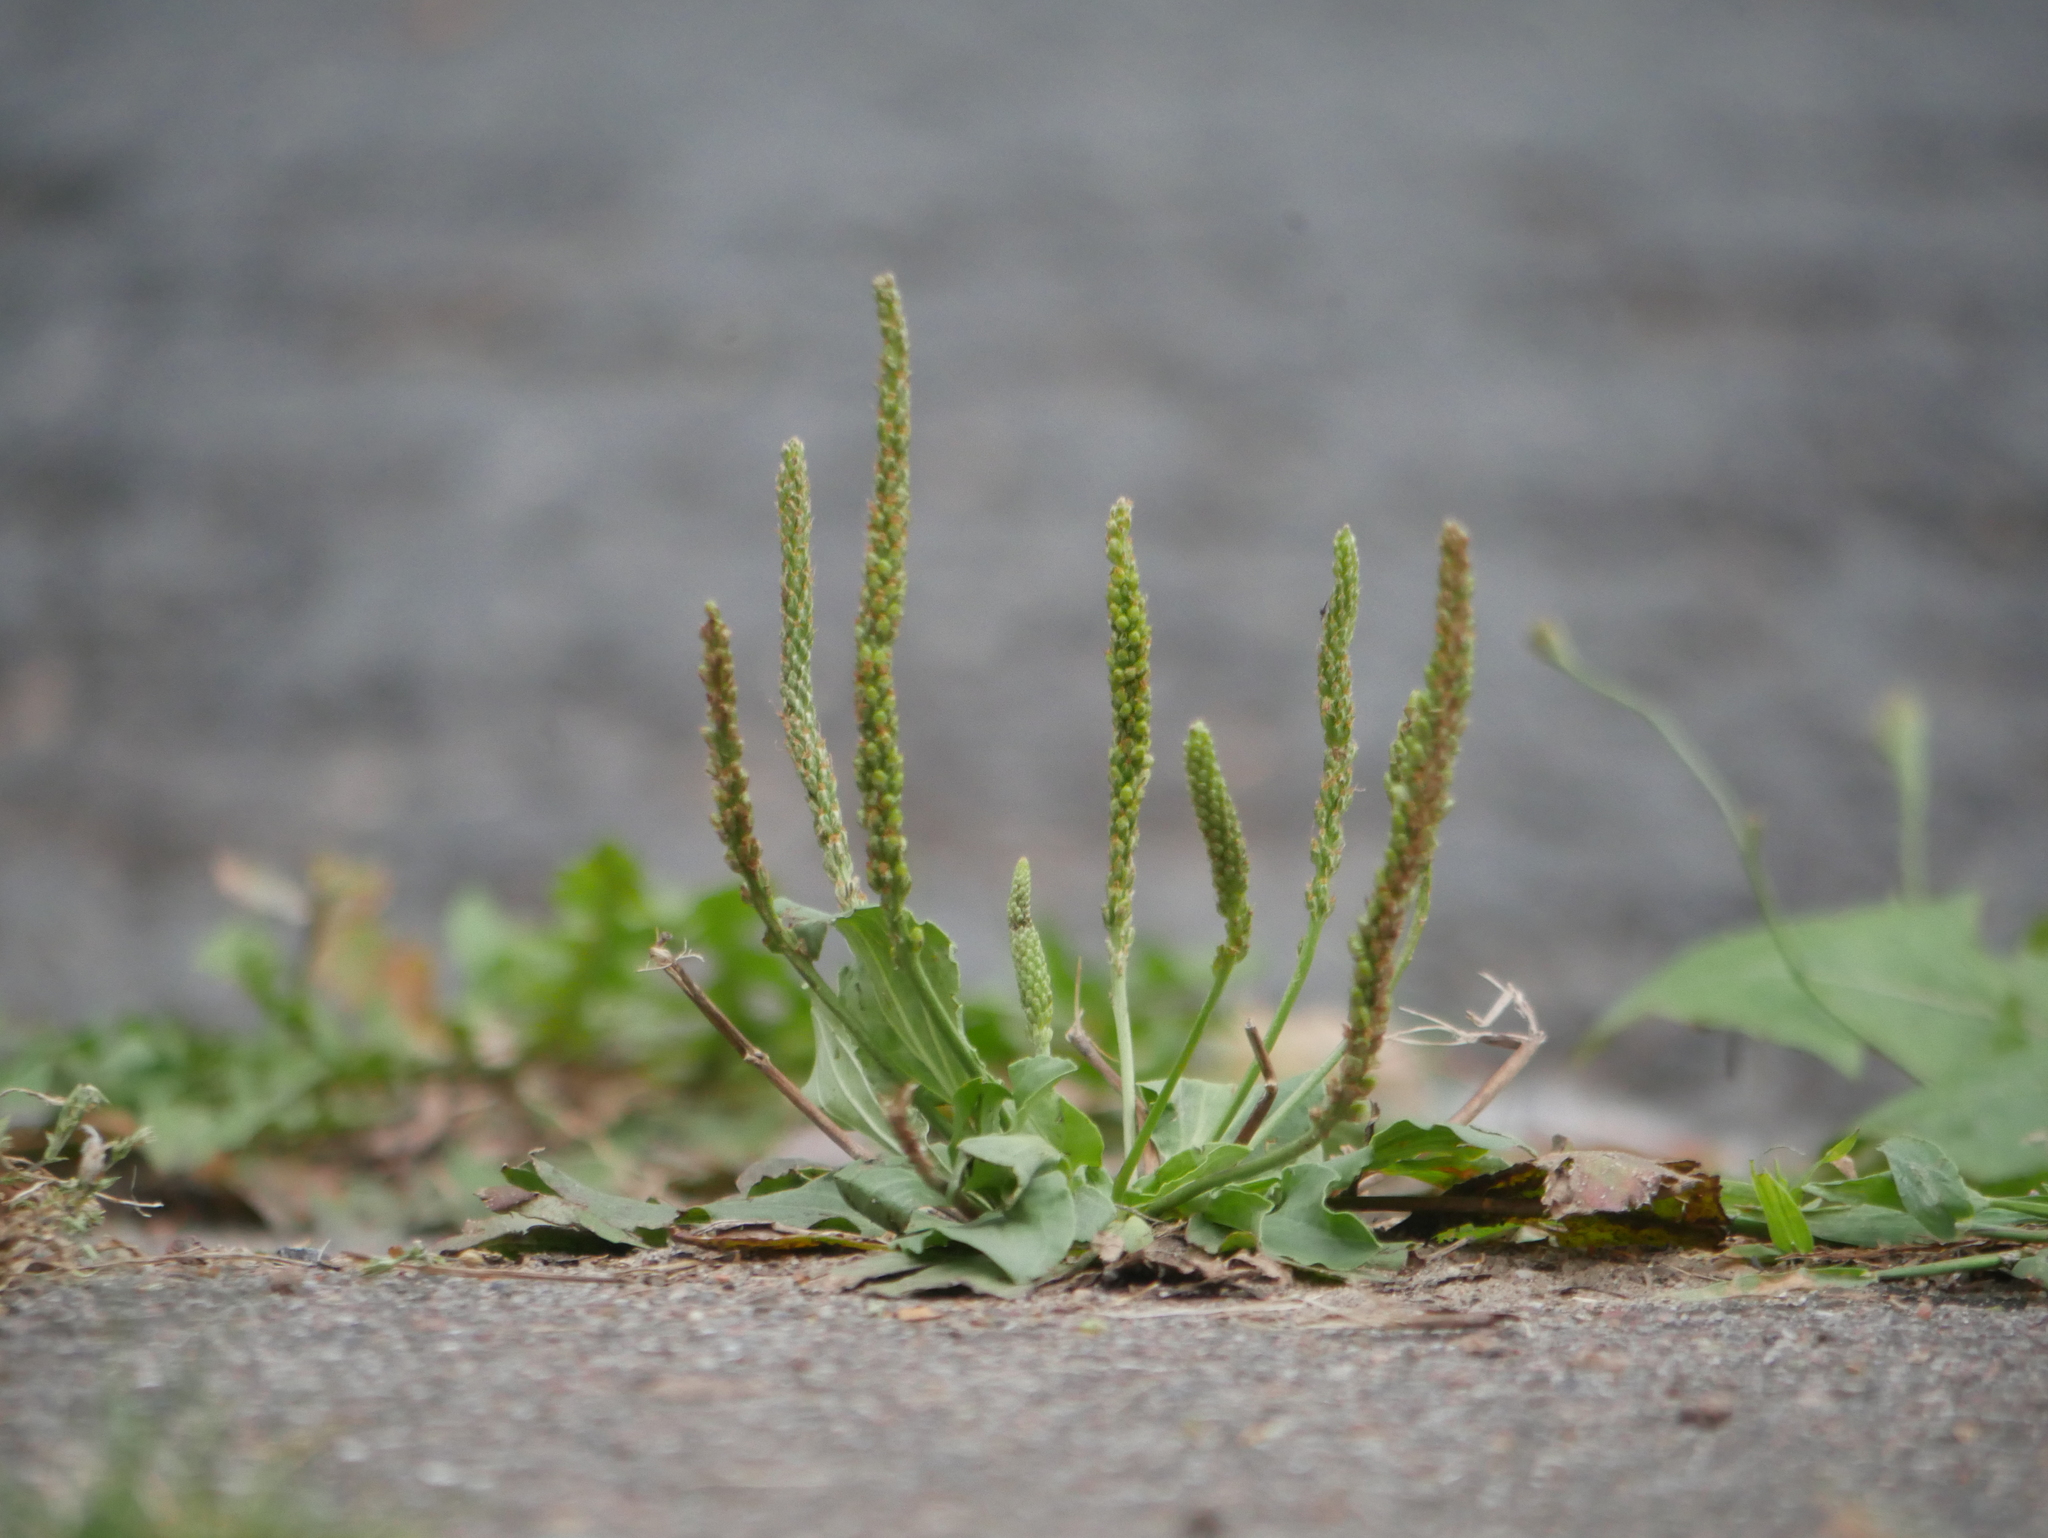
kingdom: Plantae
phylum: Tracheophyta
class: Magnoliopsida
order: Lamiales
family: Plantaginaceae
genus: Plantago
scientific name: Plantago major
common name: Common plantain
